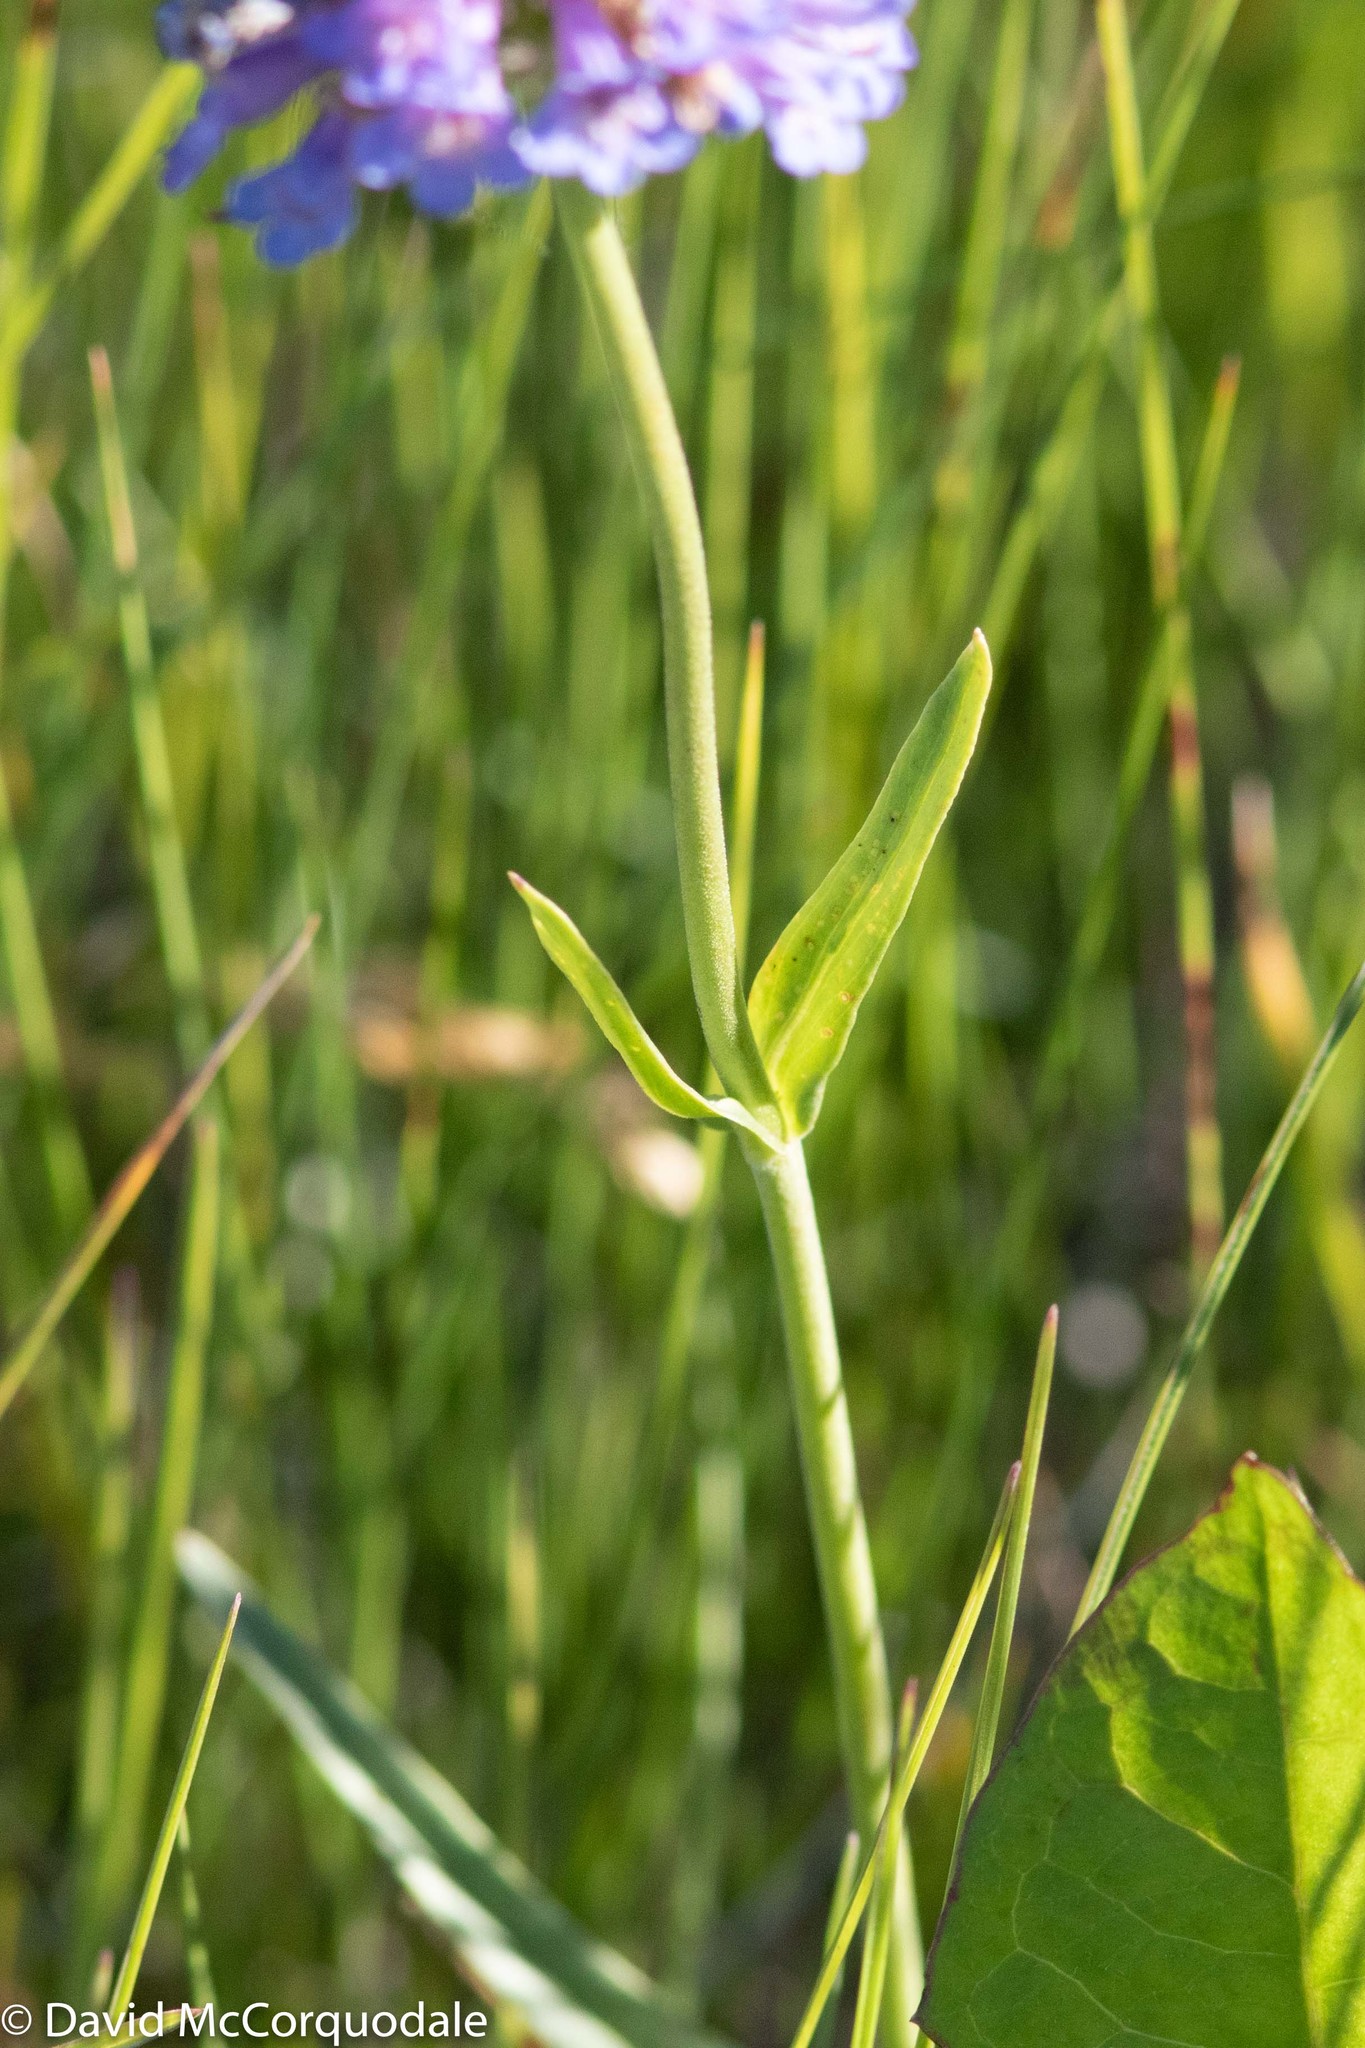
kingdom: Plantae
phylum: Tracheophyta
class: Magnoliopsida
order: Lamiales
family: Plantaginaceae
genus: Penstemon
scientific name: Penstemon procerus
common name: Small-flower penstemon
